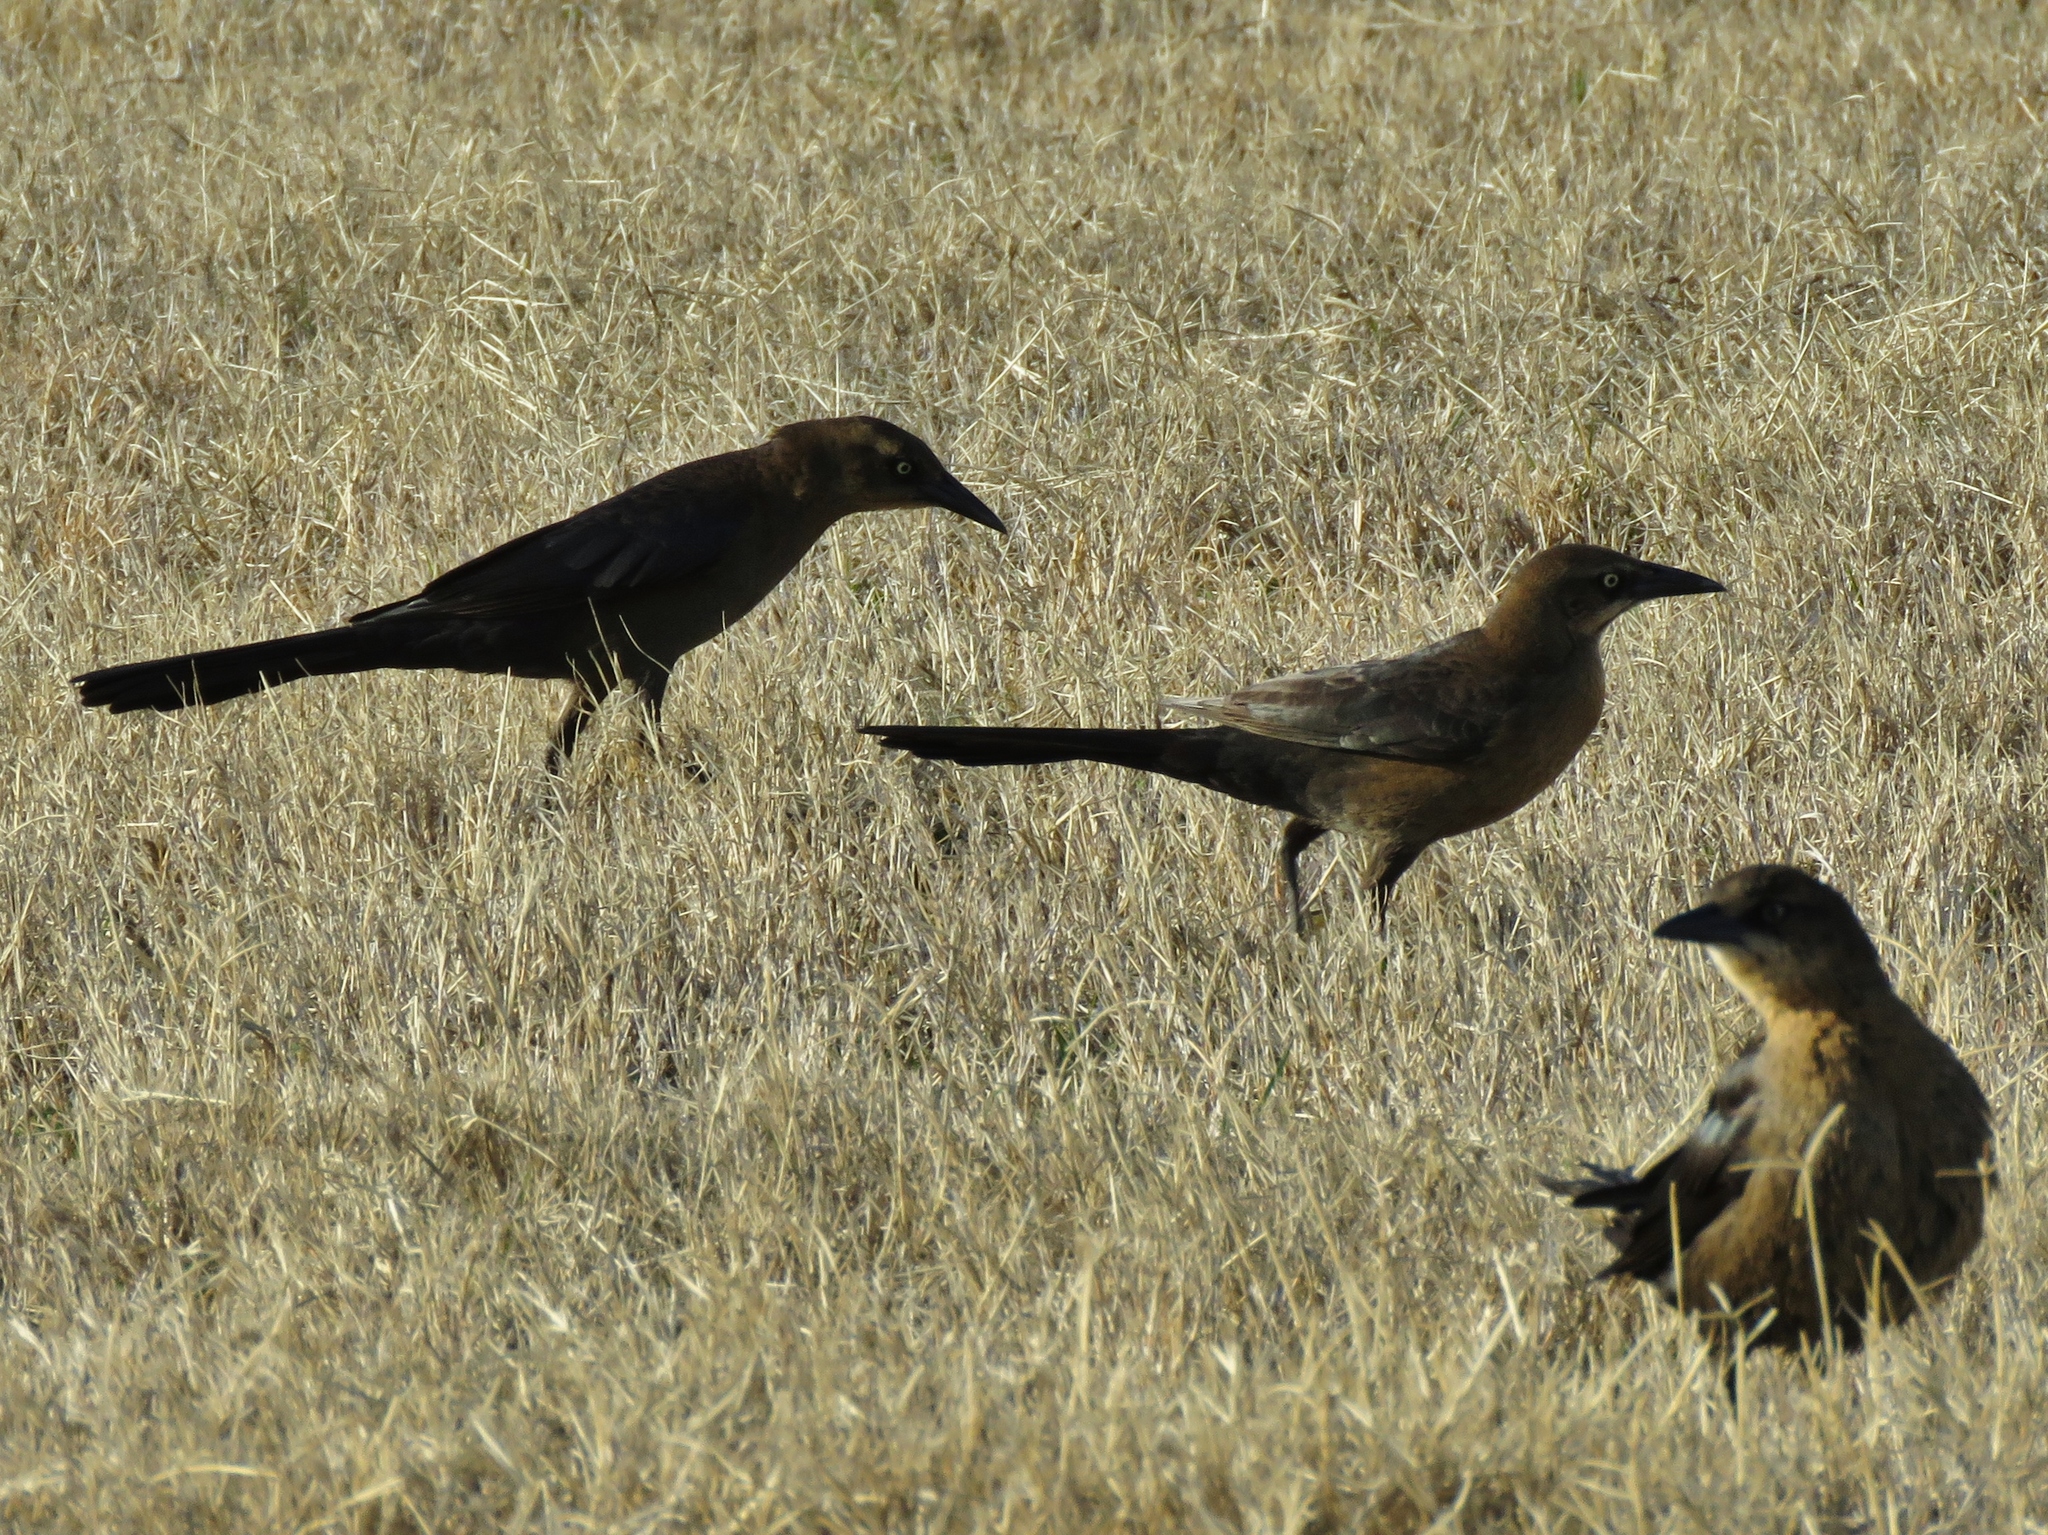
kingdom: Animalia
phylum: Chordata
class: Aves
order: Passeriformes
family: Icteridae
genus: Quiscalus
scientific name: Quiscalus mexicanus
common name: Great-tailed grackle
